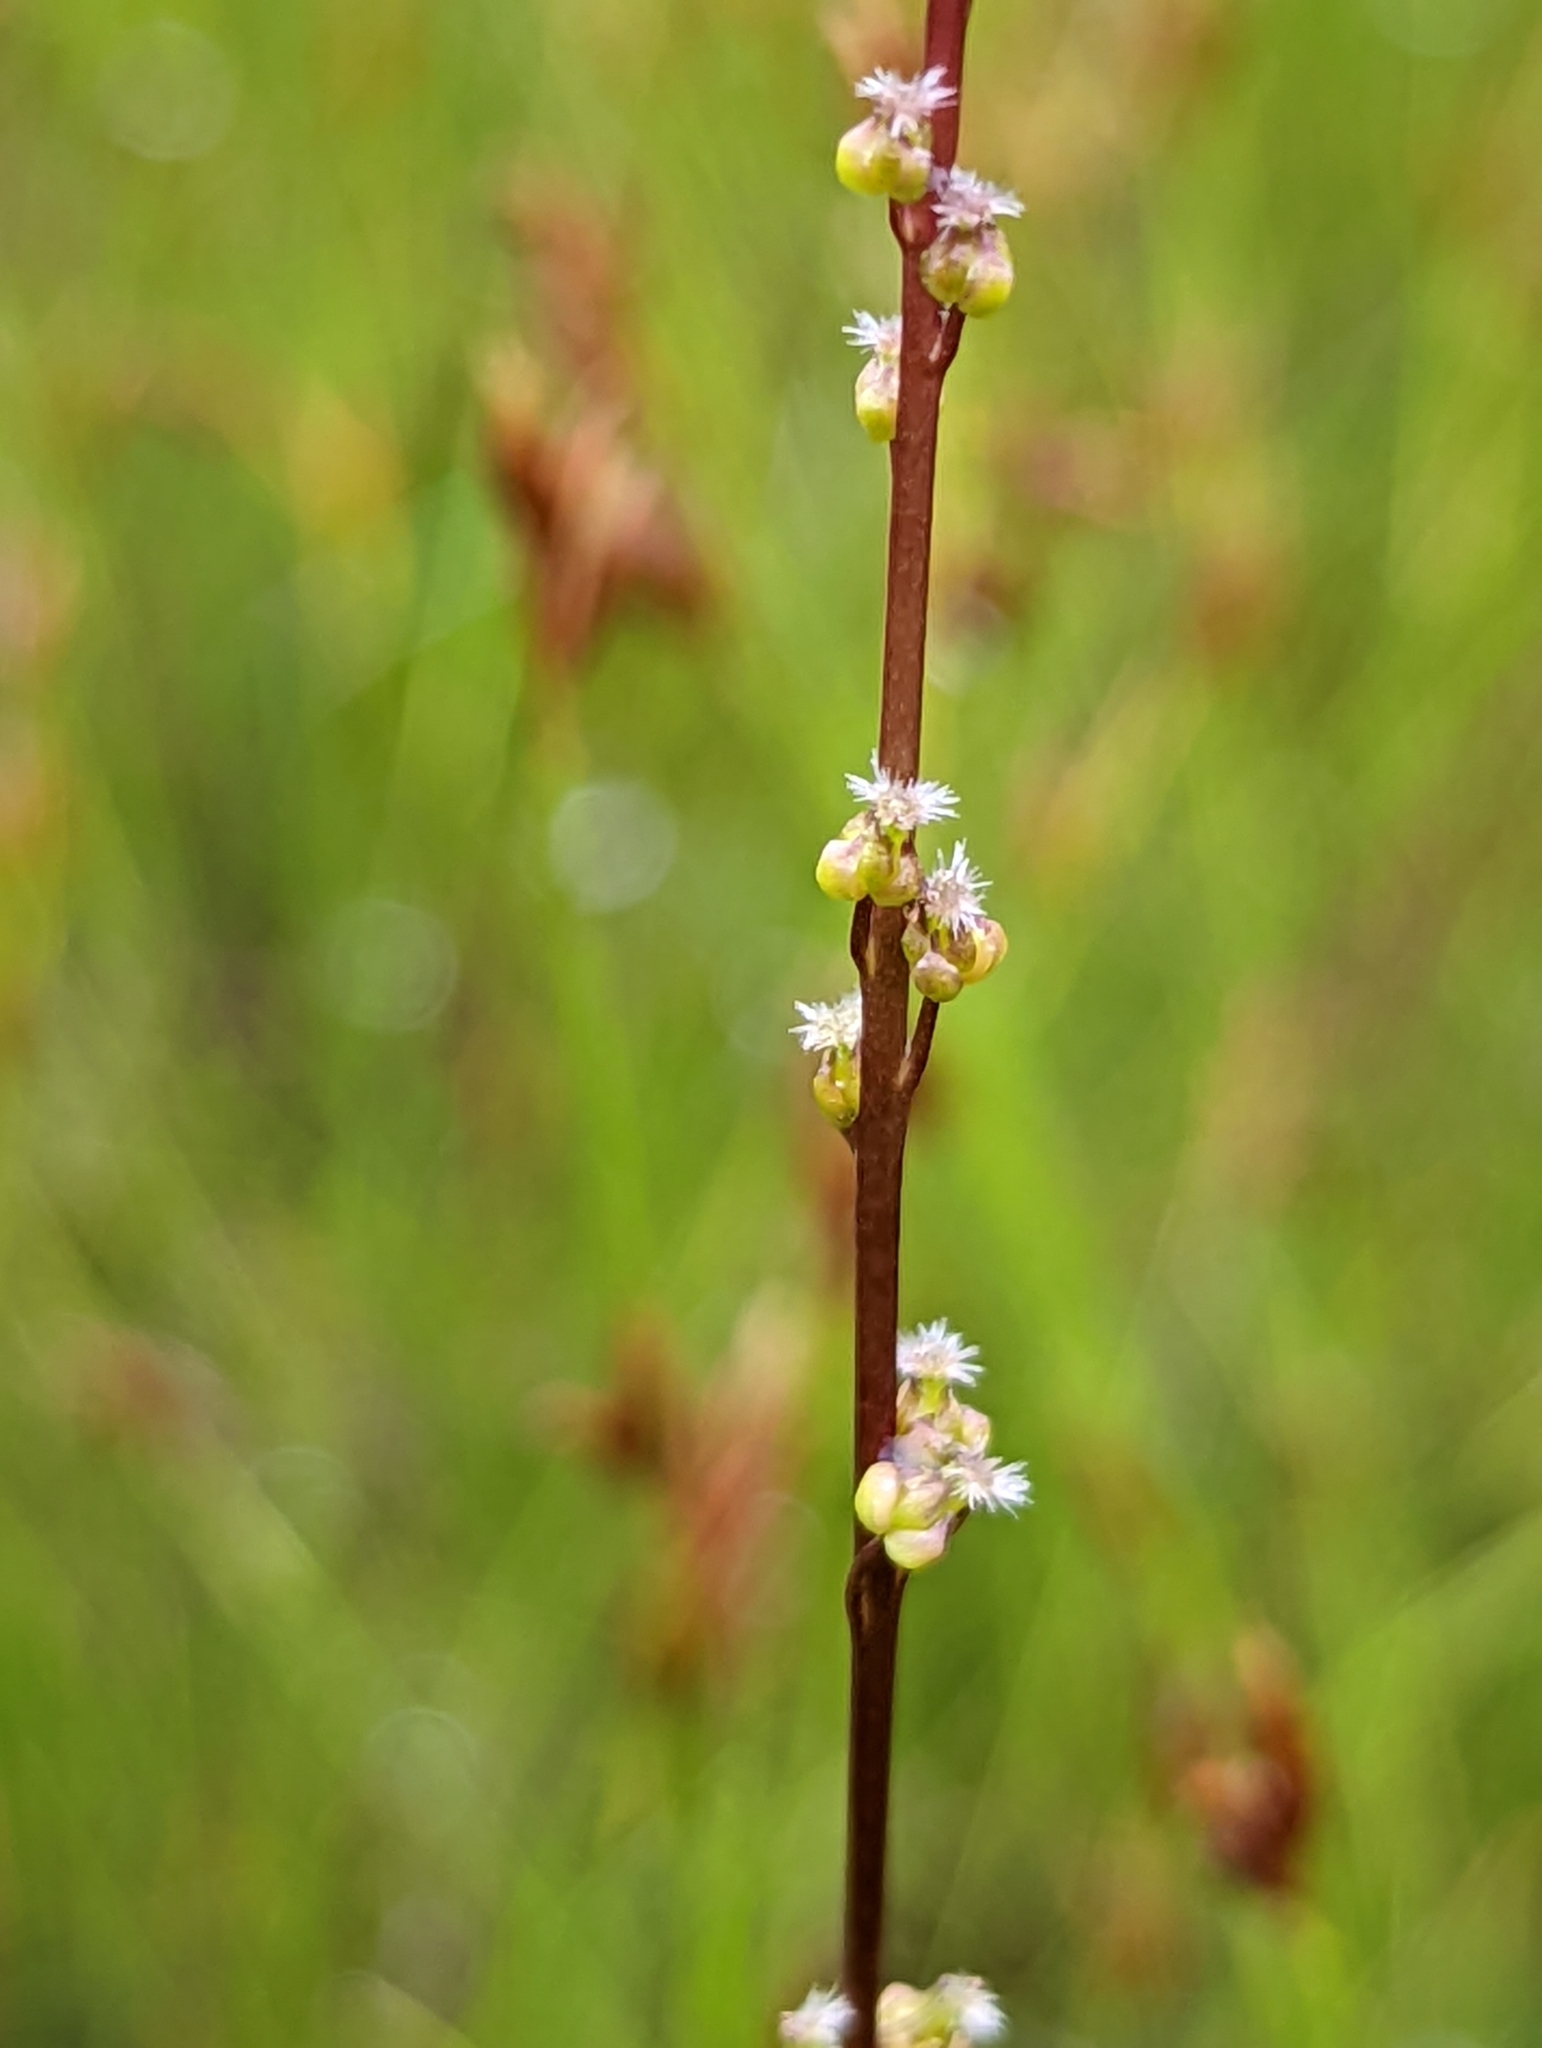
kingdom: Plantae
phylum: Tracheophyta
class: Liliopsida
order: Alismatales
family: Juncaginaceae
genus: Triglochin
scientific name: Triglochin palustris
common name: Marsh arrowgrass
